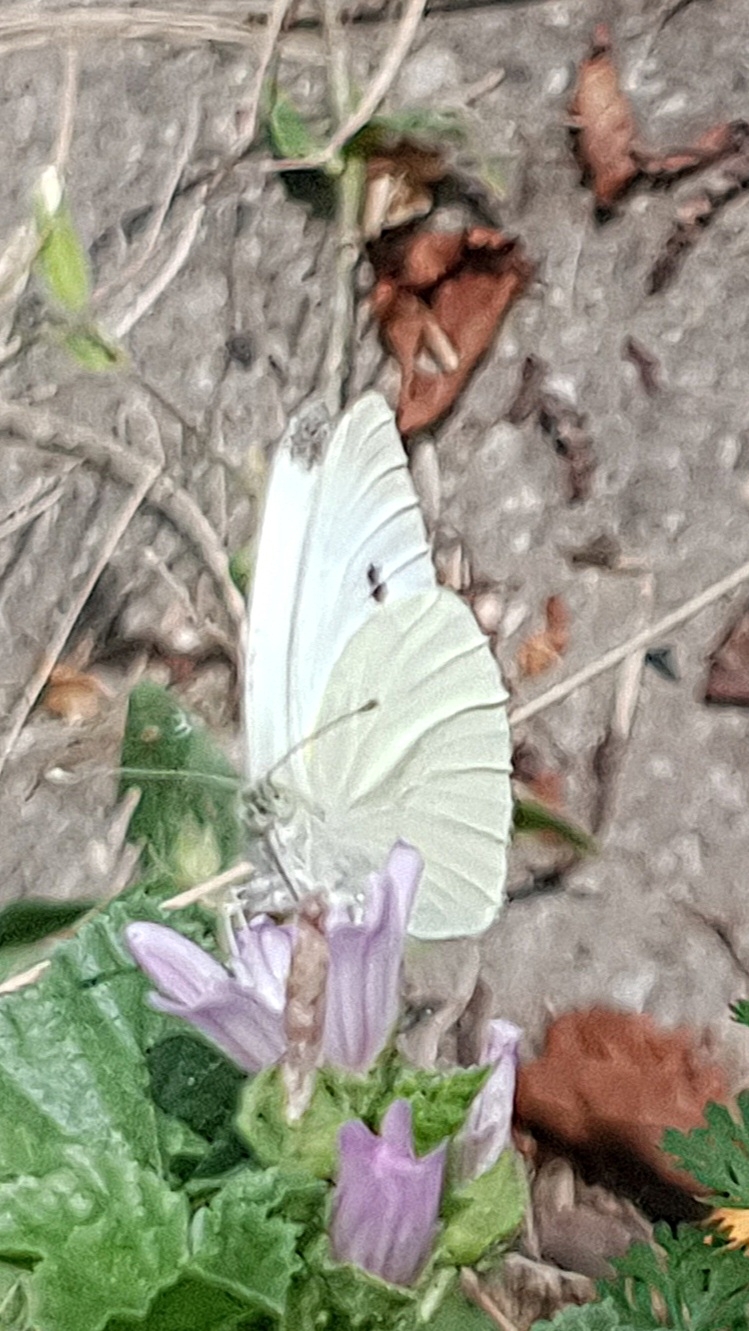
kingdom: Animalia
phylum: Arthropoda
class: Insecta
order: Lepidoptera
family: Pieridae
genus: Pieris
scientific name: Pieris rapae
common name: Small white
